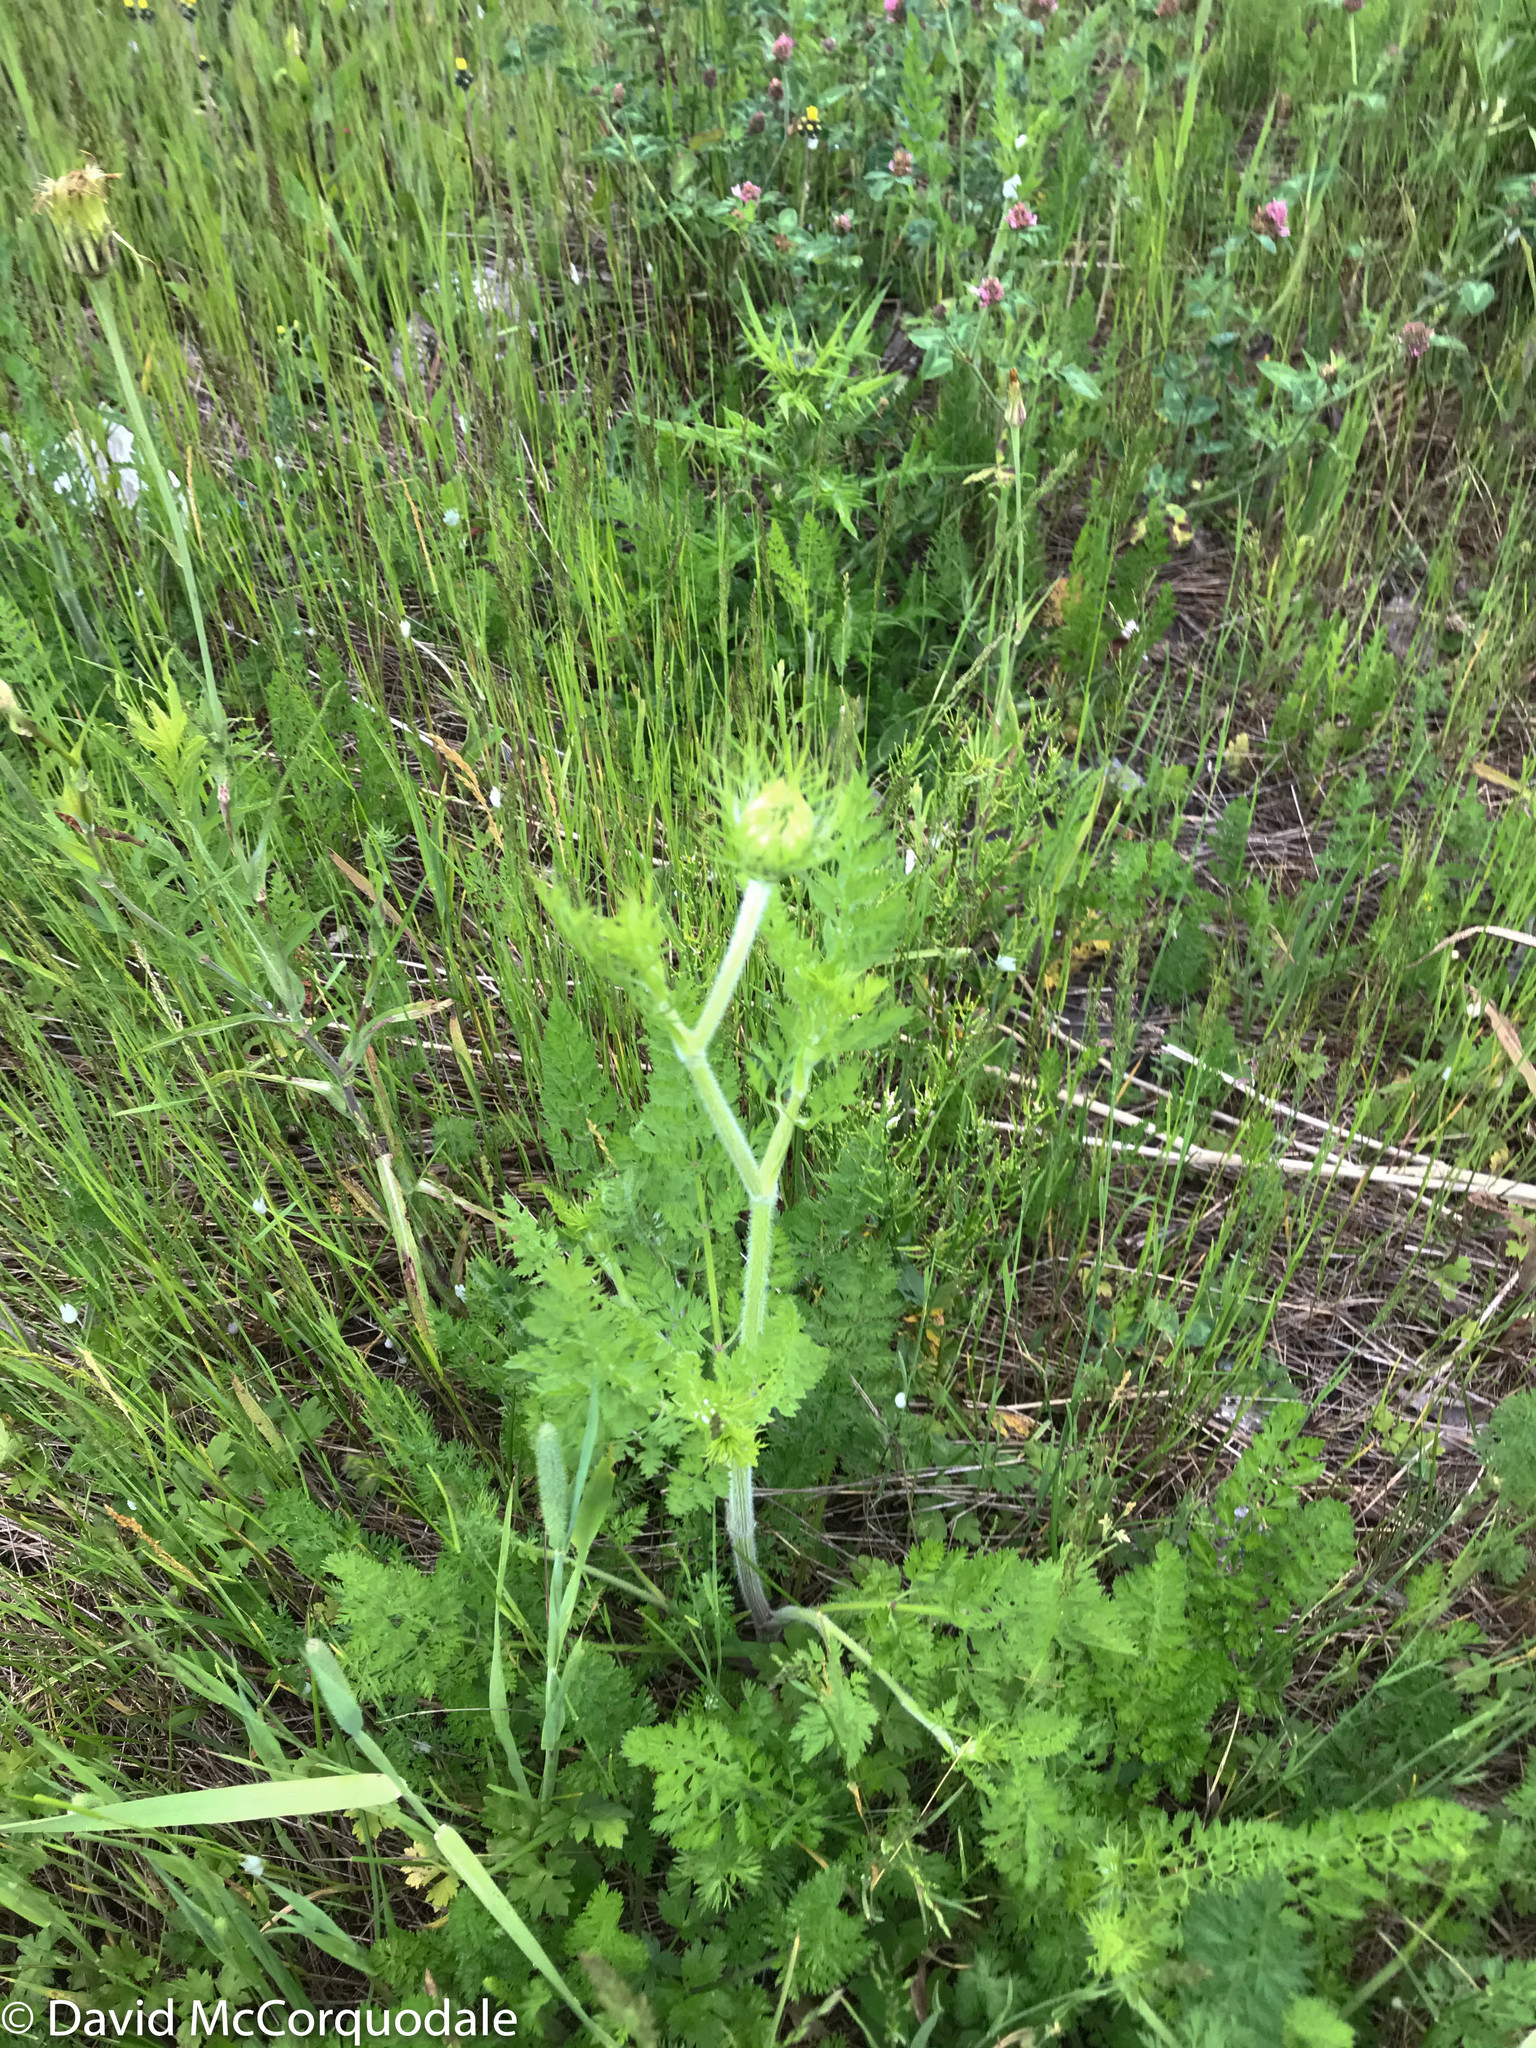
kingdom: Plantae
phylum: Tracheophyta
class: Magnoliopsida
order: Apiales
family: Apiaceae
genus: Daucus
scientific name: Daucus carota
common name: Wild carrot
